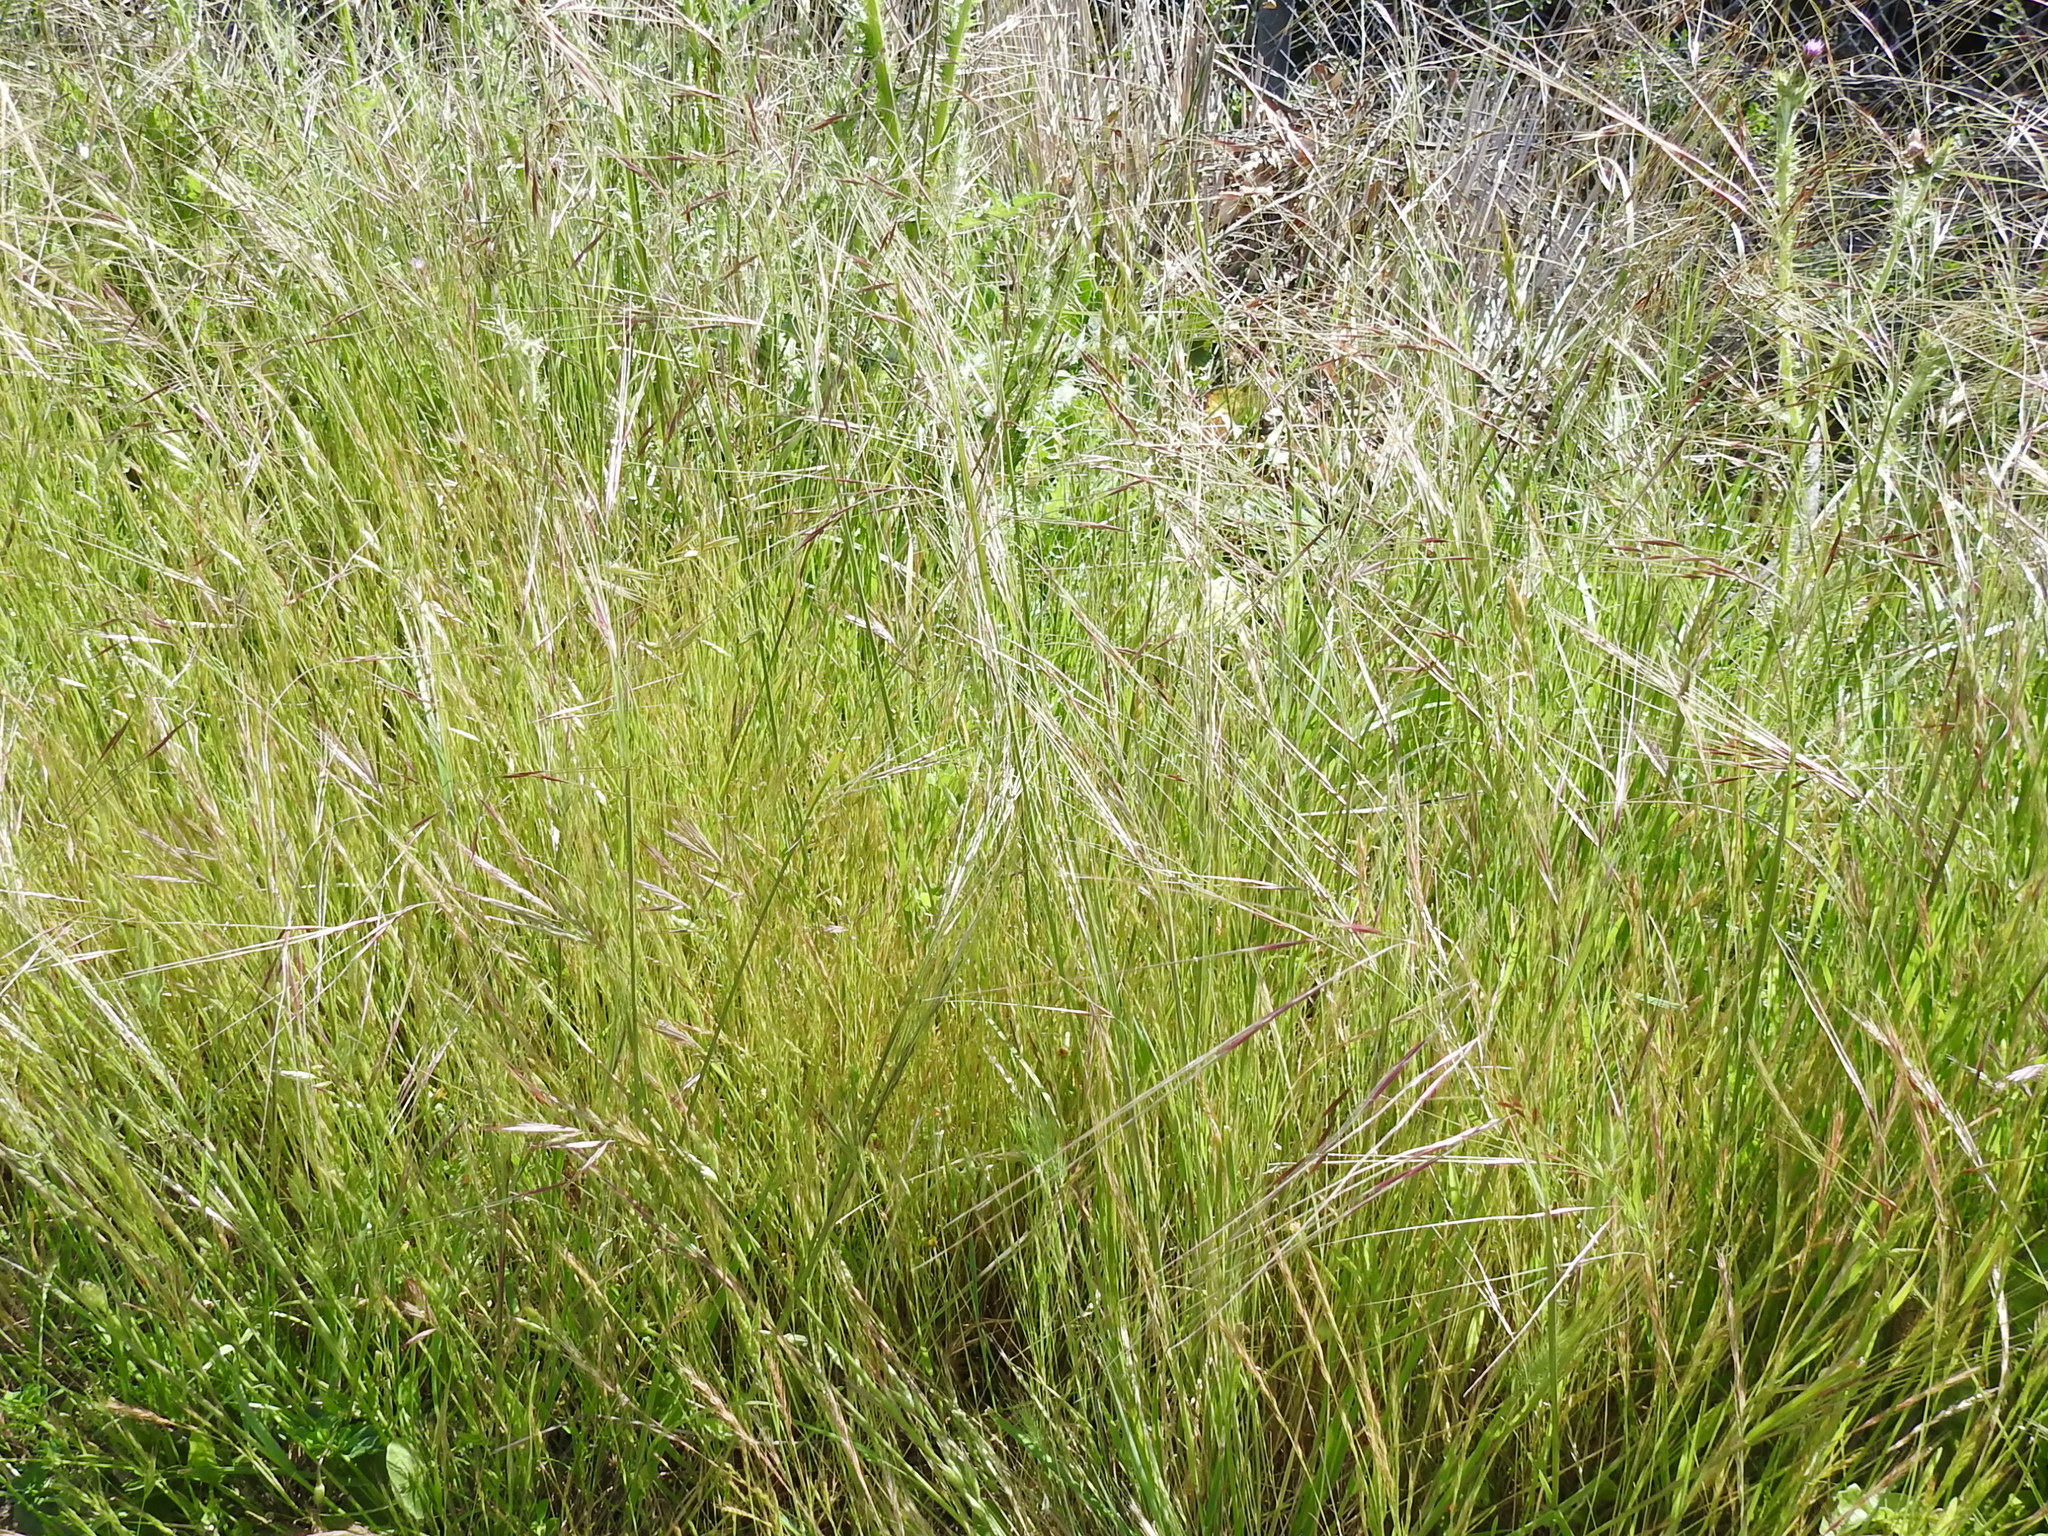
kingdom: Plantae
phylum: Tracheophyta
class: Liliopsida
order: Poales
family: Poaceae
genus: Nassella
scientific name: Nassella pulchra
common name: Purple needlegrass
